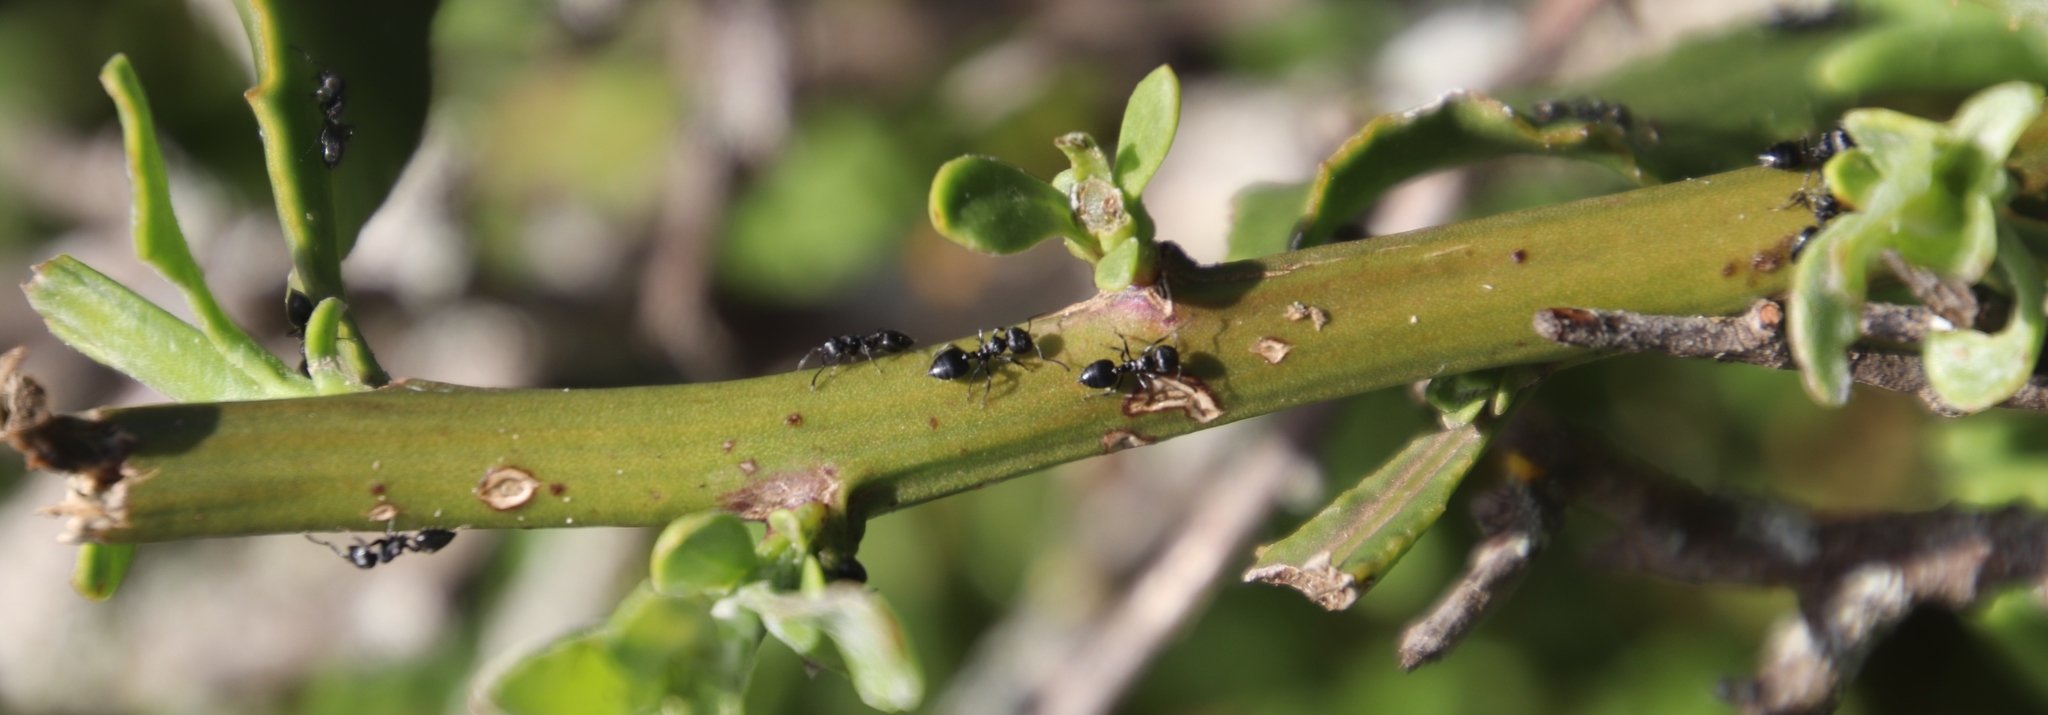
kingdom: Animalia
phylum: Arthropoda
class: Insecta
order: Hymenoptera
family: Formicidae
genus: Crematogaster
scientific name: Crematogaster peringueyi
